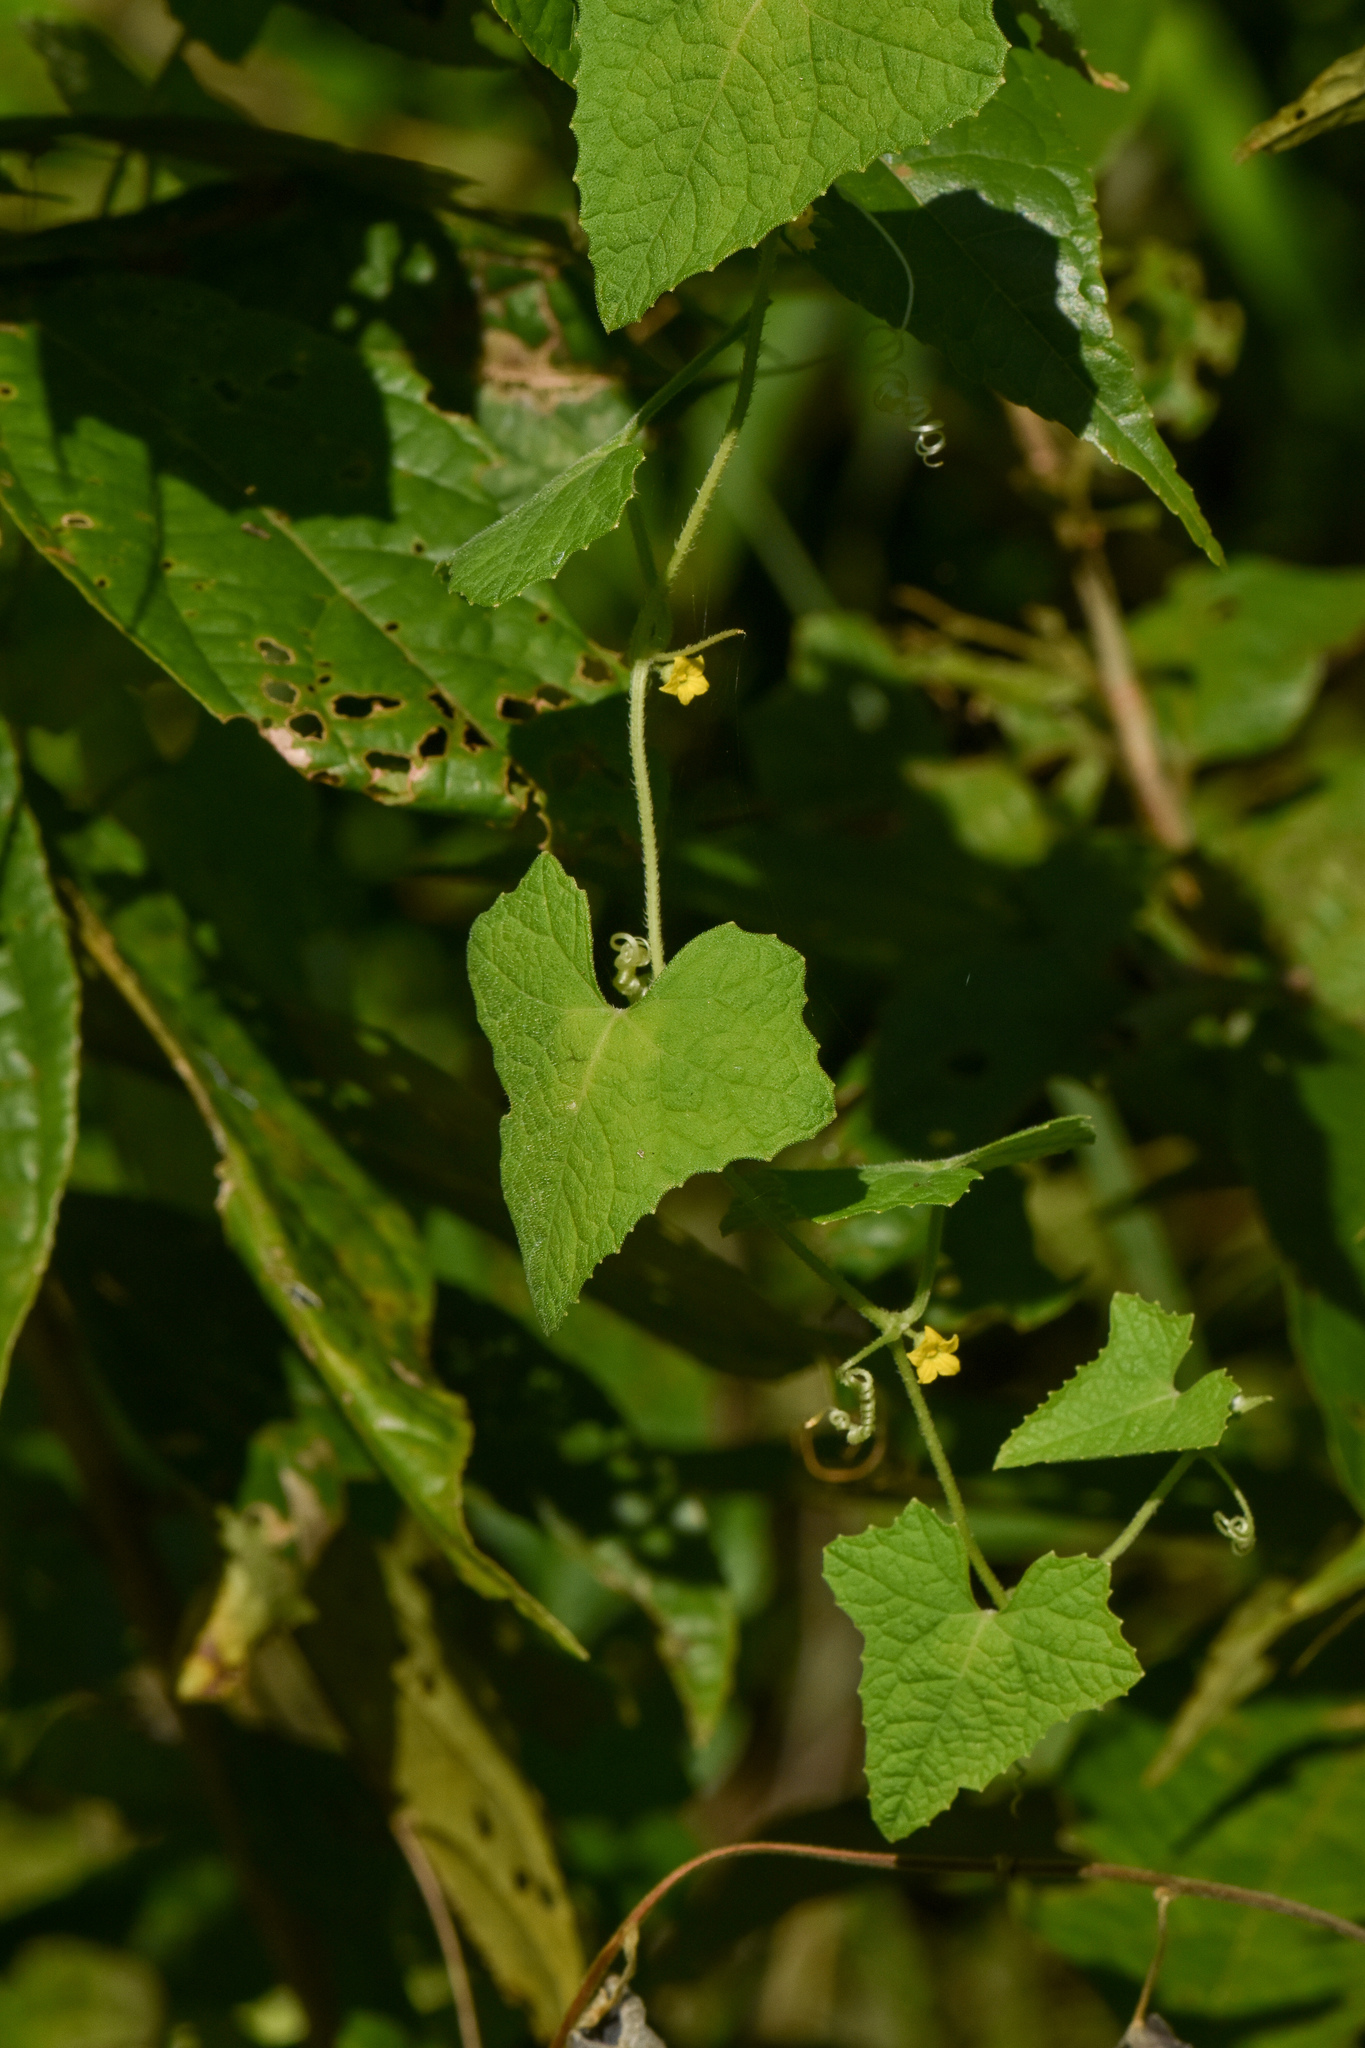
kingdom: Plantae
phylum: Tracheophyta
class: Magnoliopsida
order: Cucurbitales
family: Cucurbitaceae
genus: Cucumis
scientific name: Cucumis maderaspatanus
